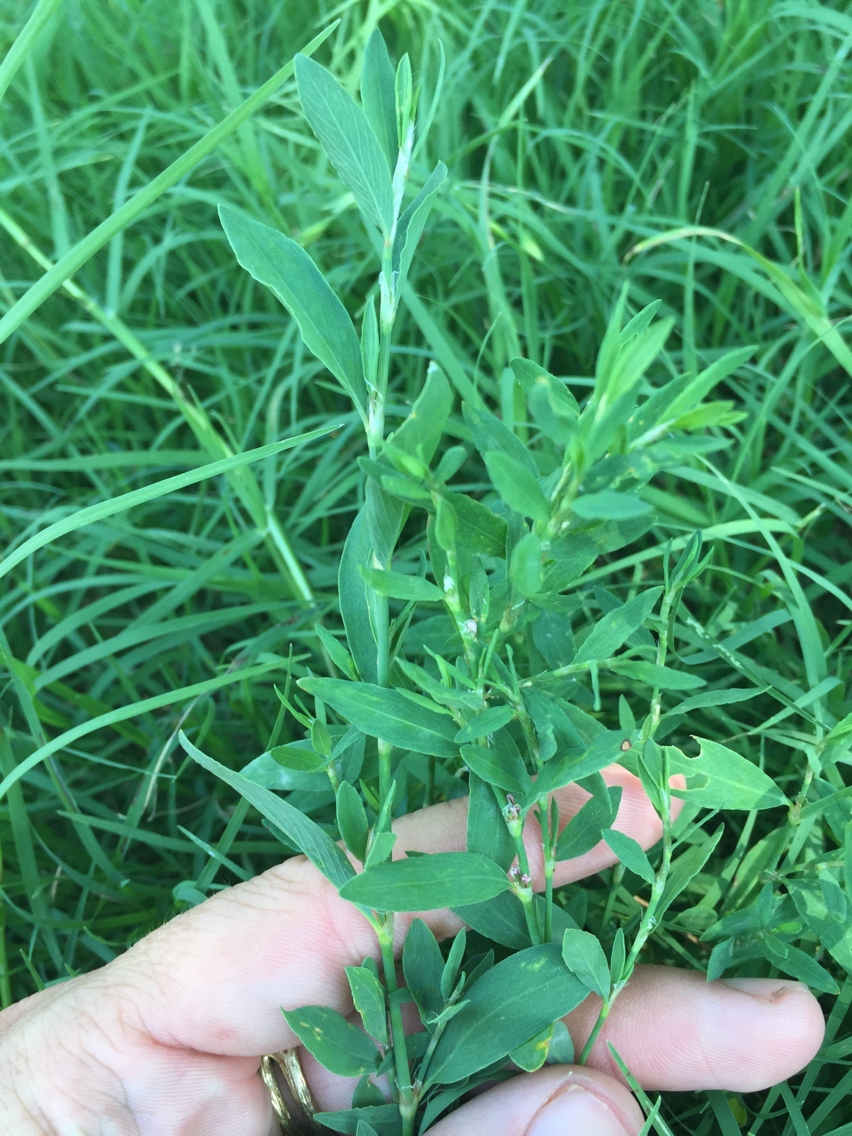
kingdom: Plantae
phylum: Tracheophyta
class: Magnoliopsida
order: Caryophyllales
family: Polygonaceae
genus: Polygonum
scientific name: Polygonum aviculare
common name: Prostrate knotweed
